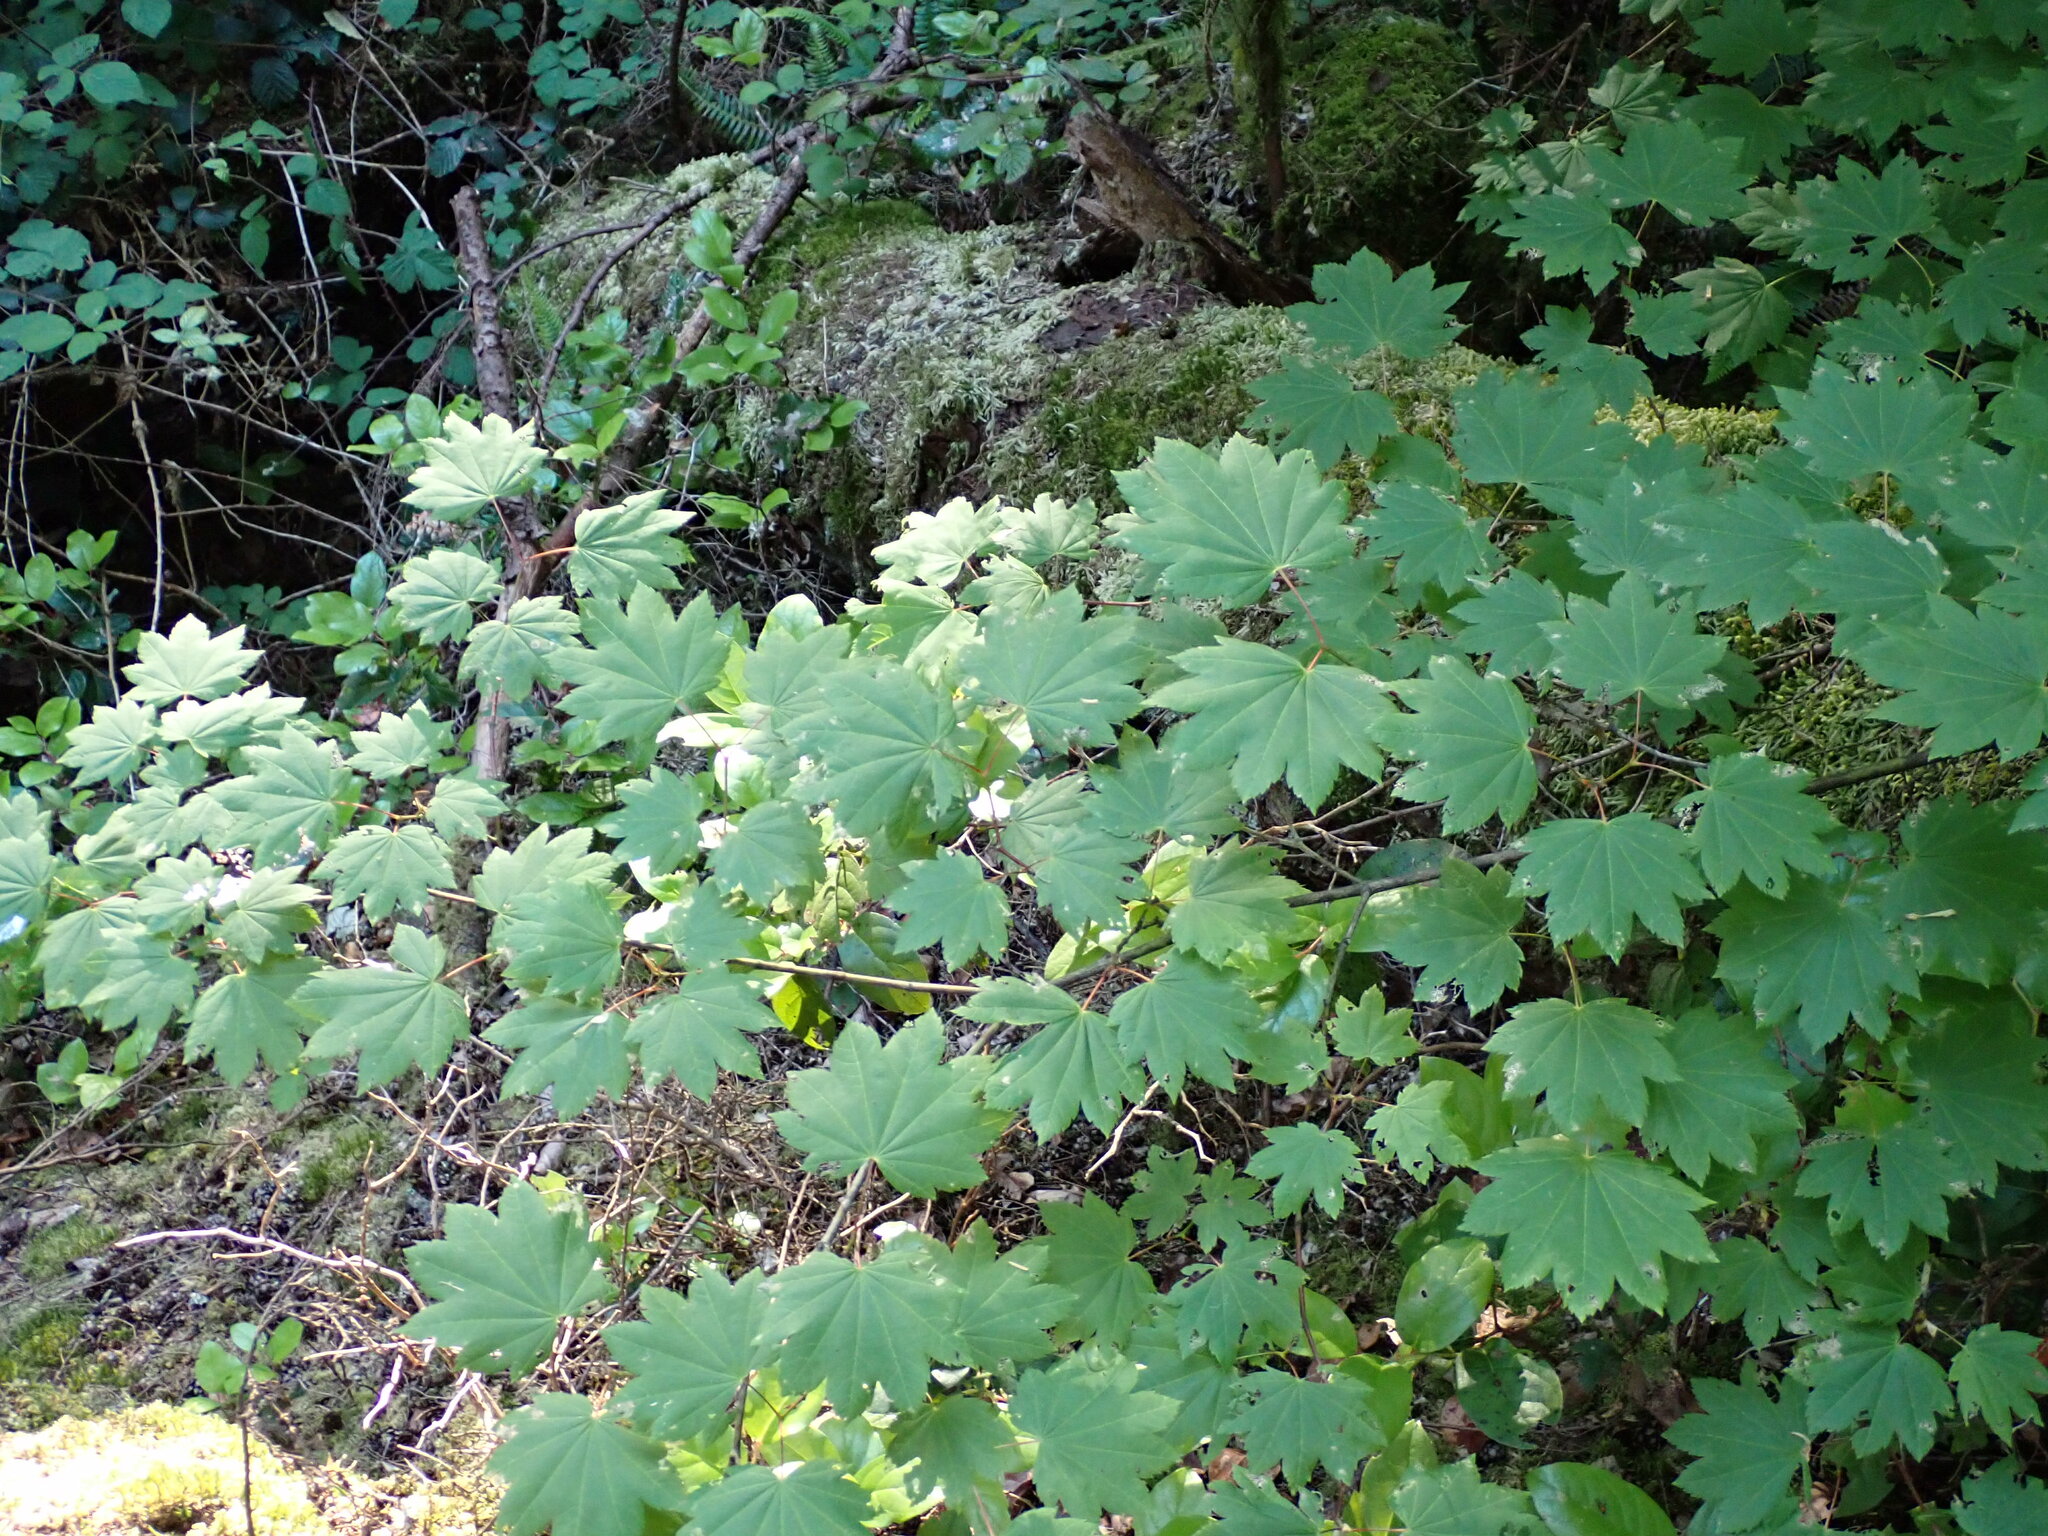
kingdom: Plantae
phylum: Tracheophyta
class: Magnoliopsida
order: Sapindales
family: Sapindaceae
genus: Acer
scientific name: Acer circinatum
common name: Vine maple
